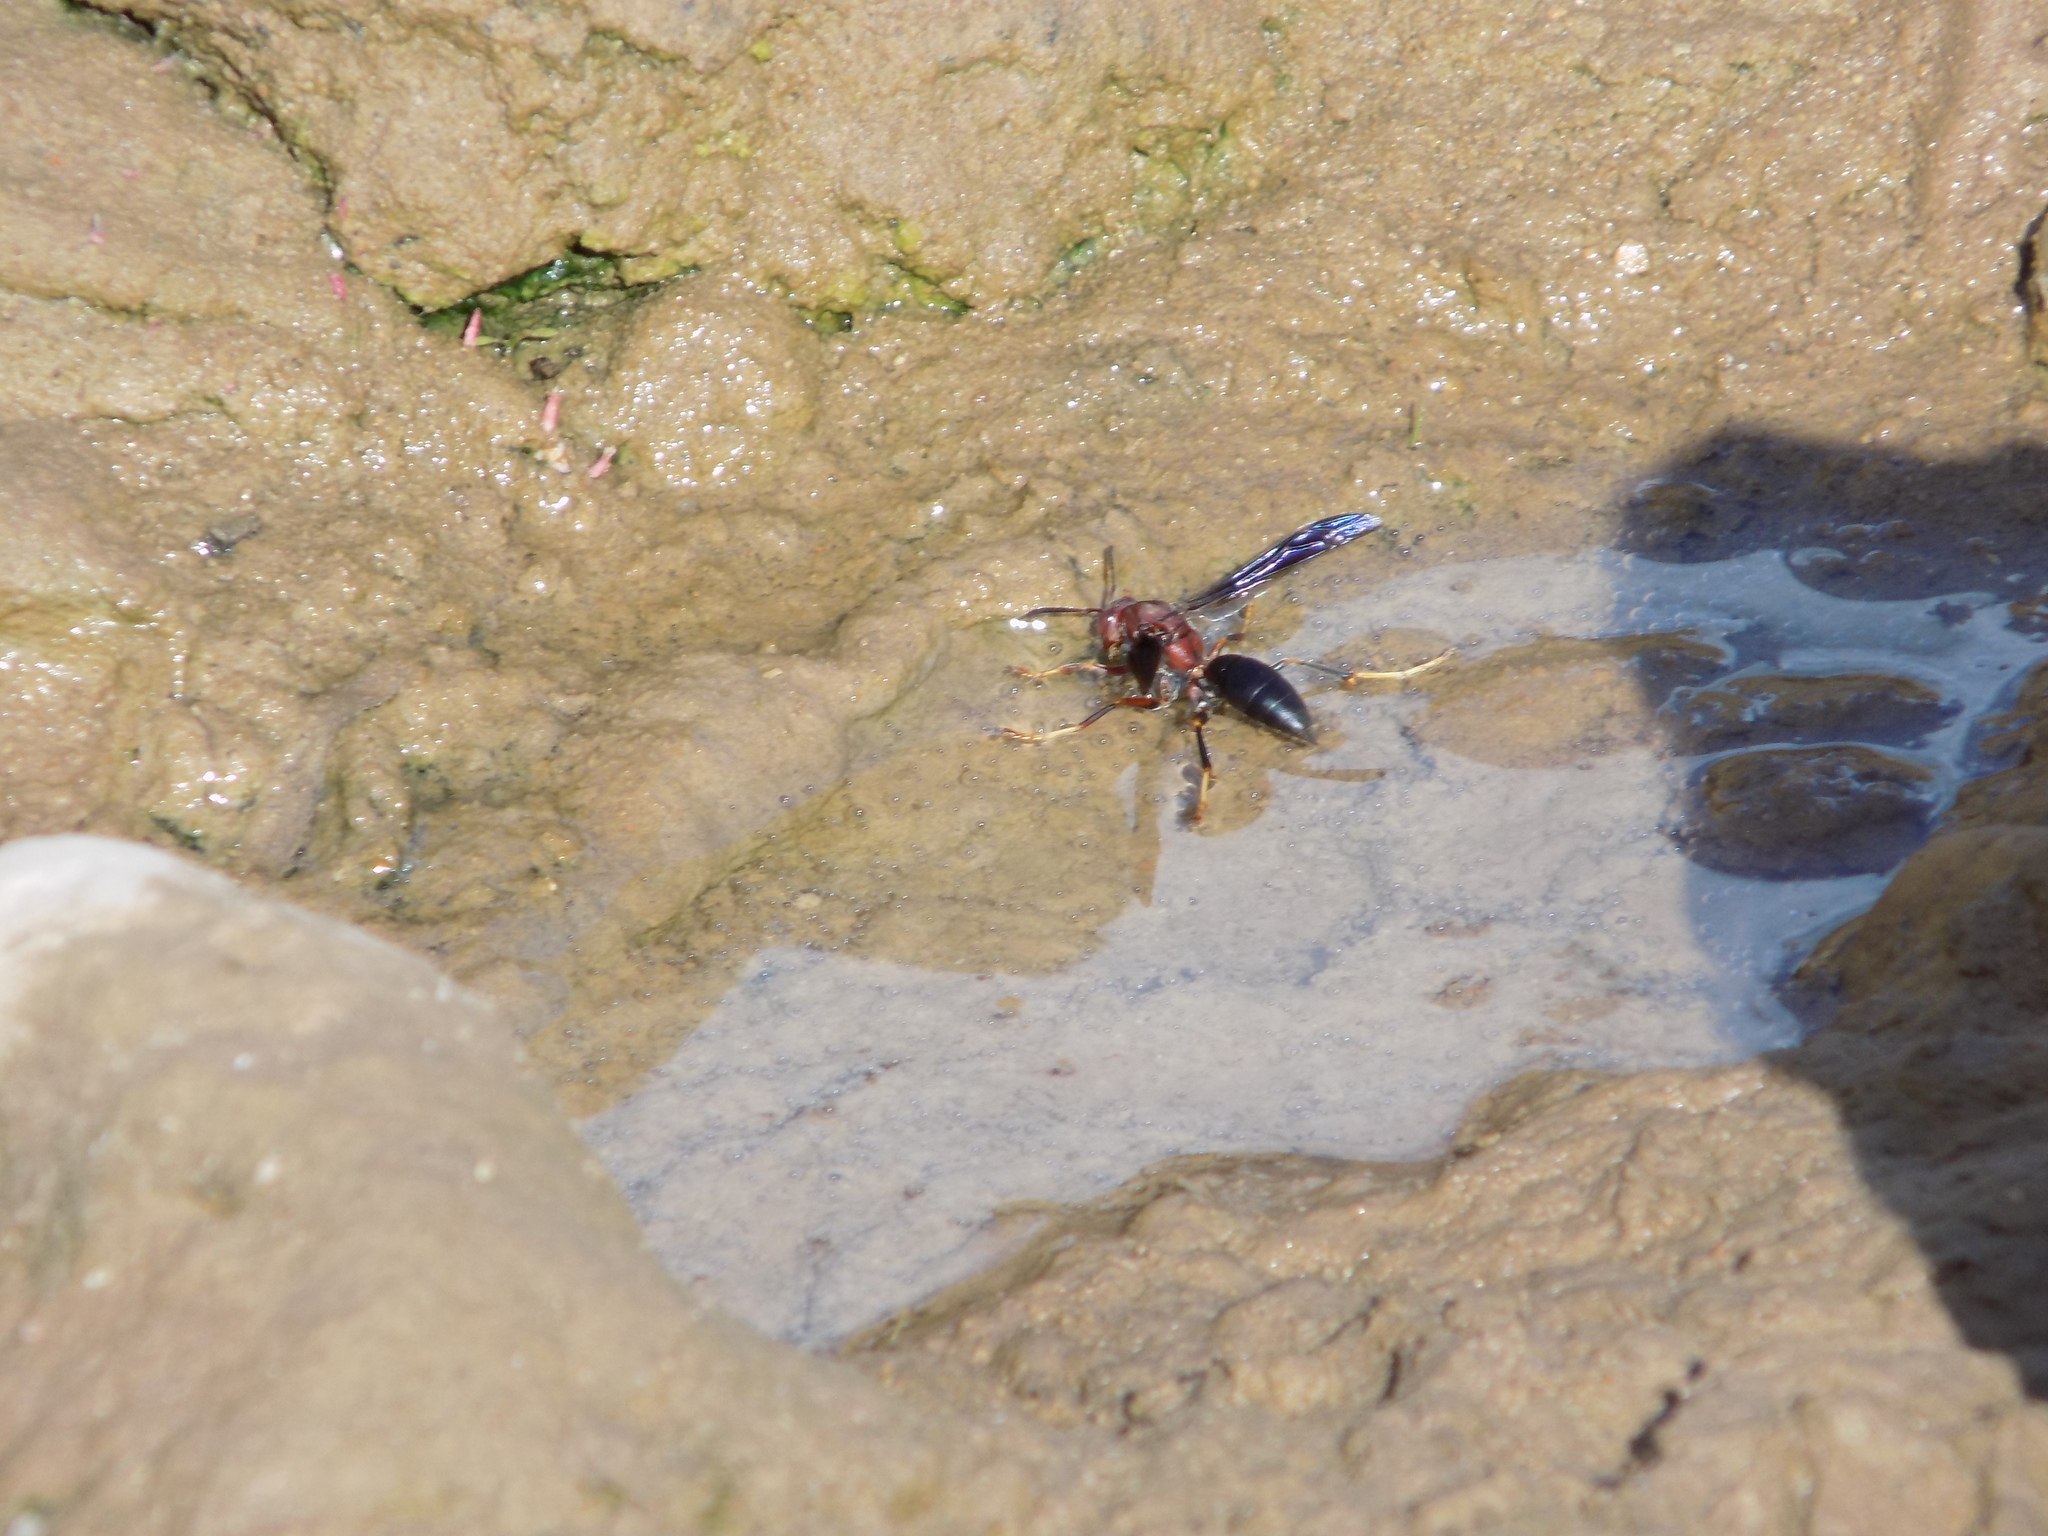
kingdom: Animalia
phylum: Arthropoda
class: Insecta
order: Hymenoptera
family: Eumenidae
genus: Polistes
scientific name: Polistes metricus
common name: Metric paper wasp
